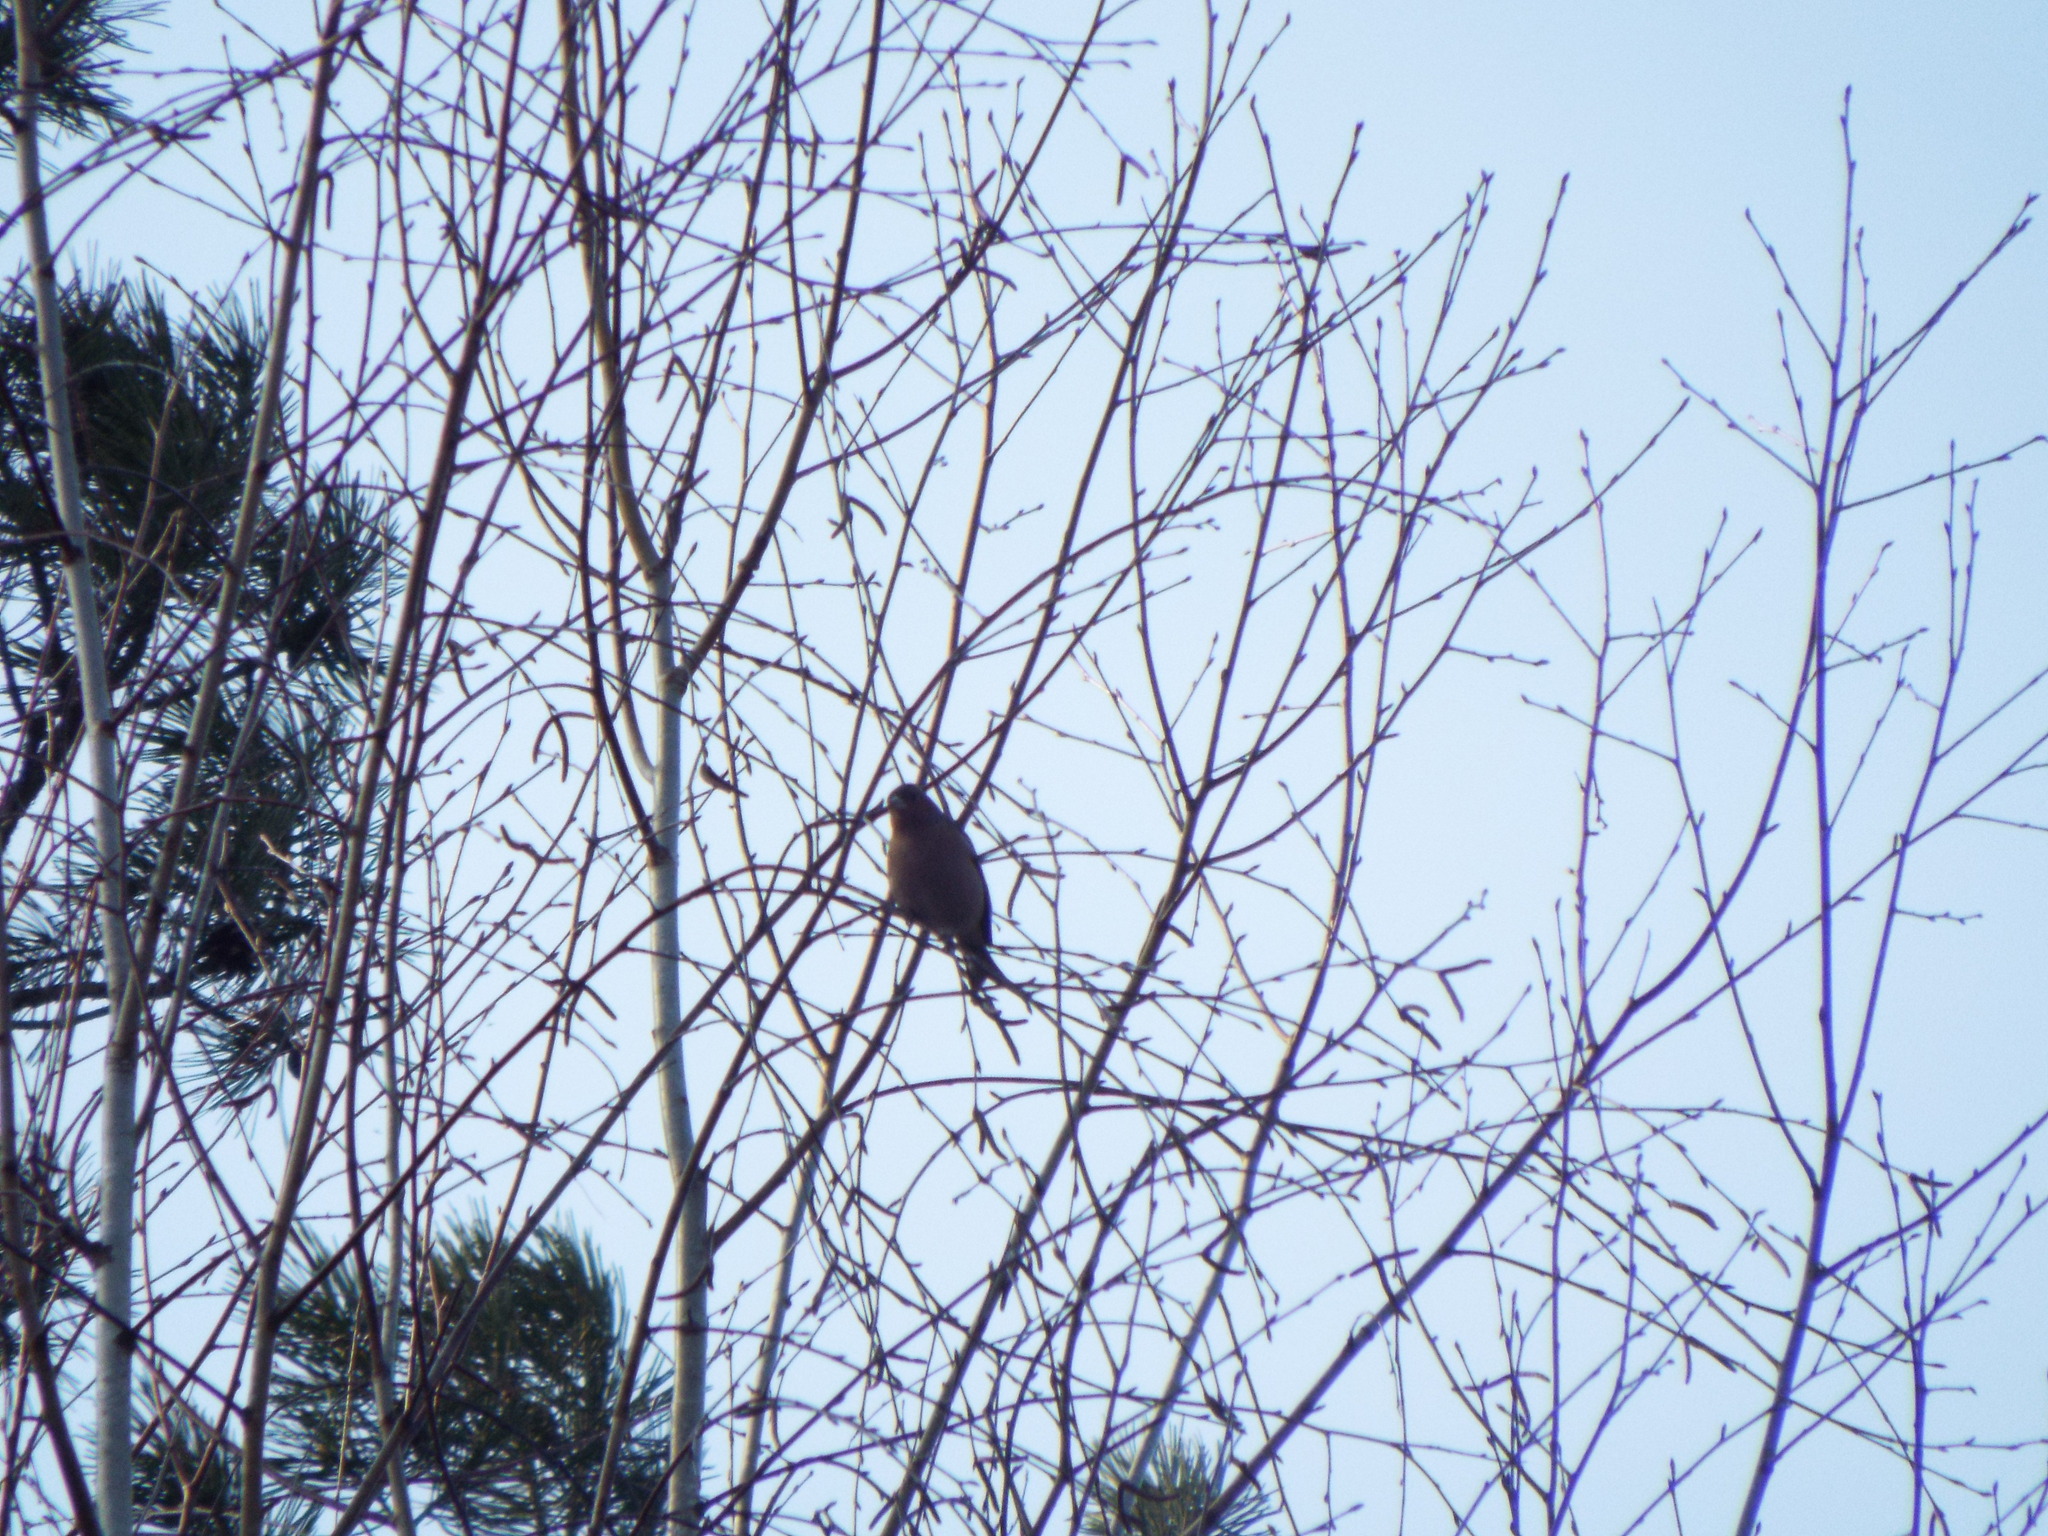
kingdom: Animalia
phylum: Chordata
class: Aves
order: Passeriformes
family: Fringillidae
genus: Fringilla
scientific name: Fringilla coelebs
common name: Common chaffinch
